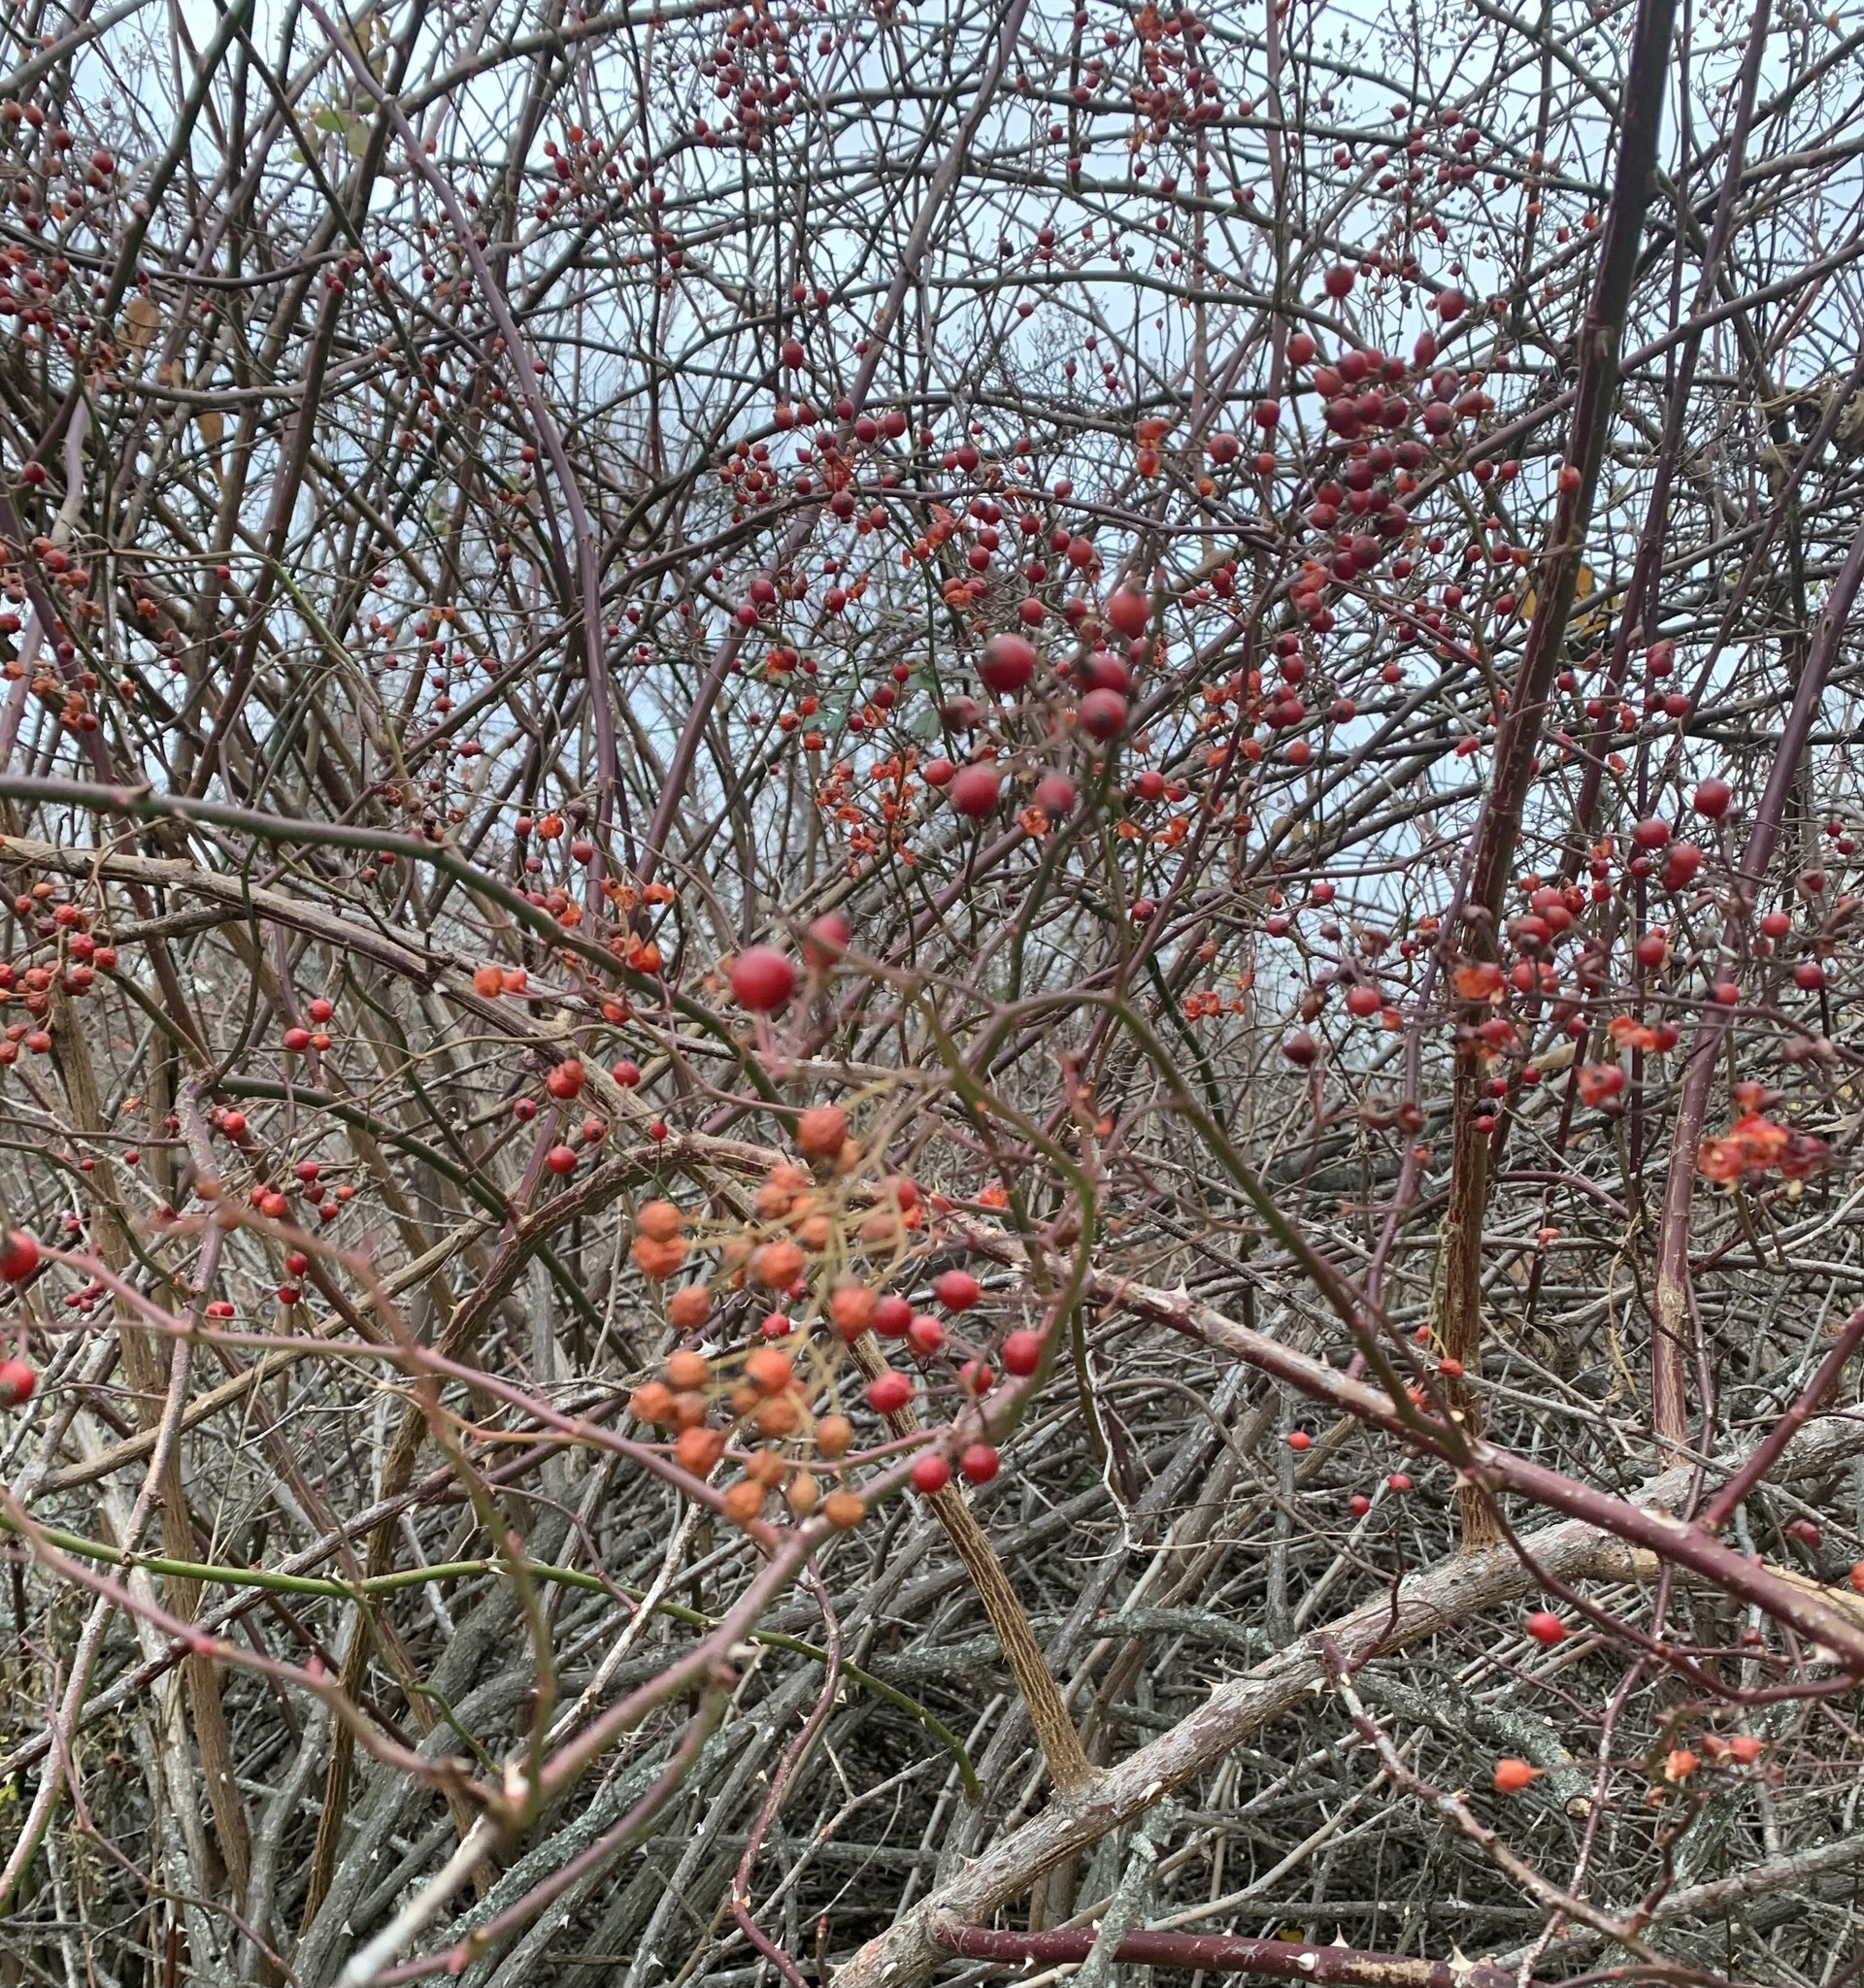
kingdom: Plantae
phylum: Tracheophyta
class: Magnoliopsida
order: Rosales
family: Rosaceae
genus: Rosa
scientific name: Rosa multiflora
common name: Multiflora rose
